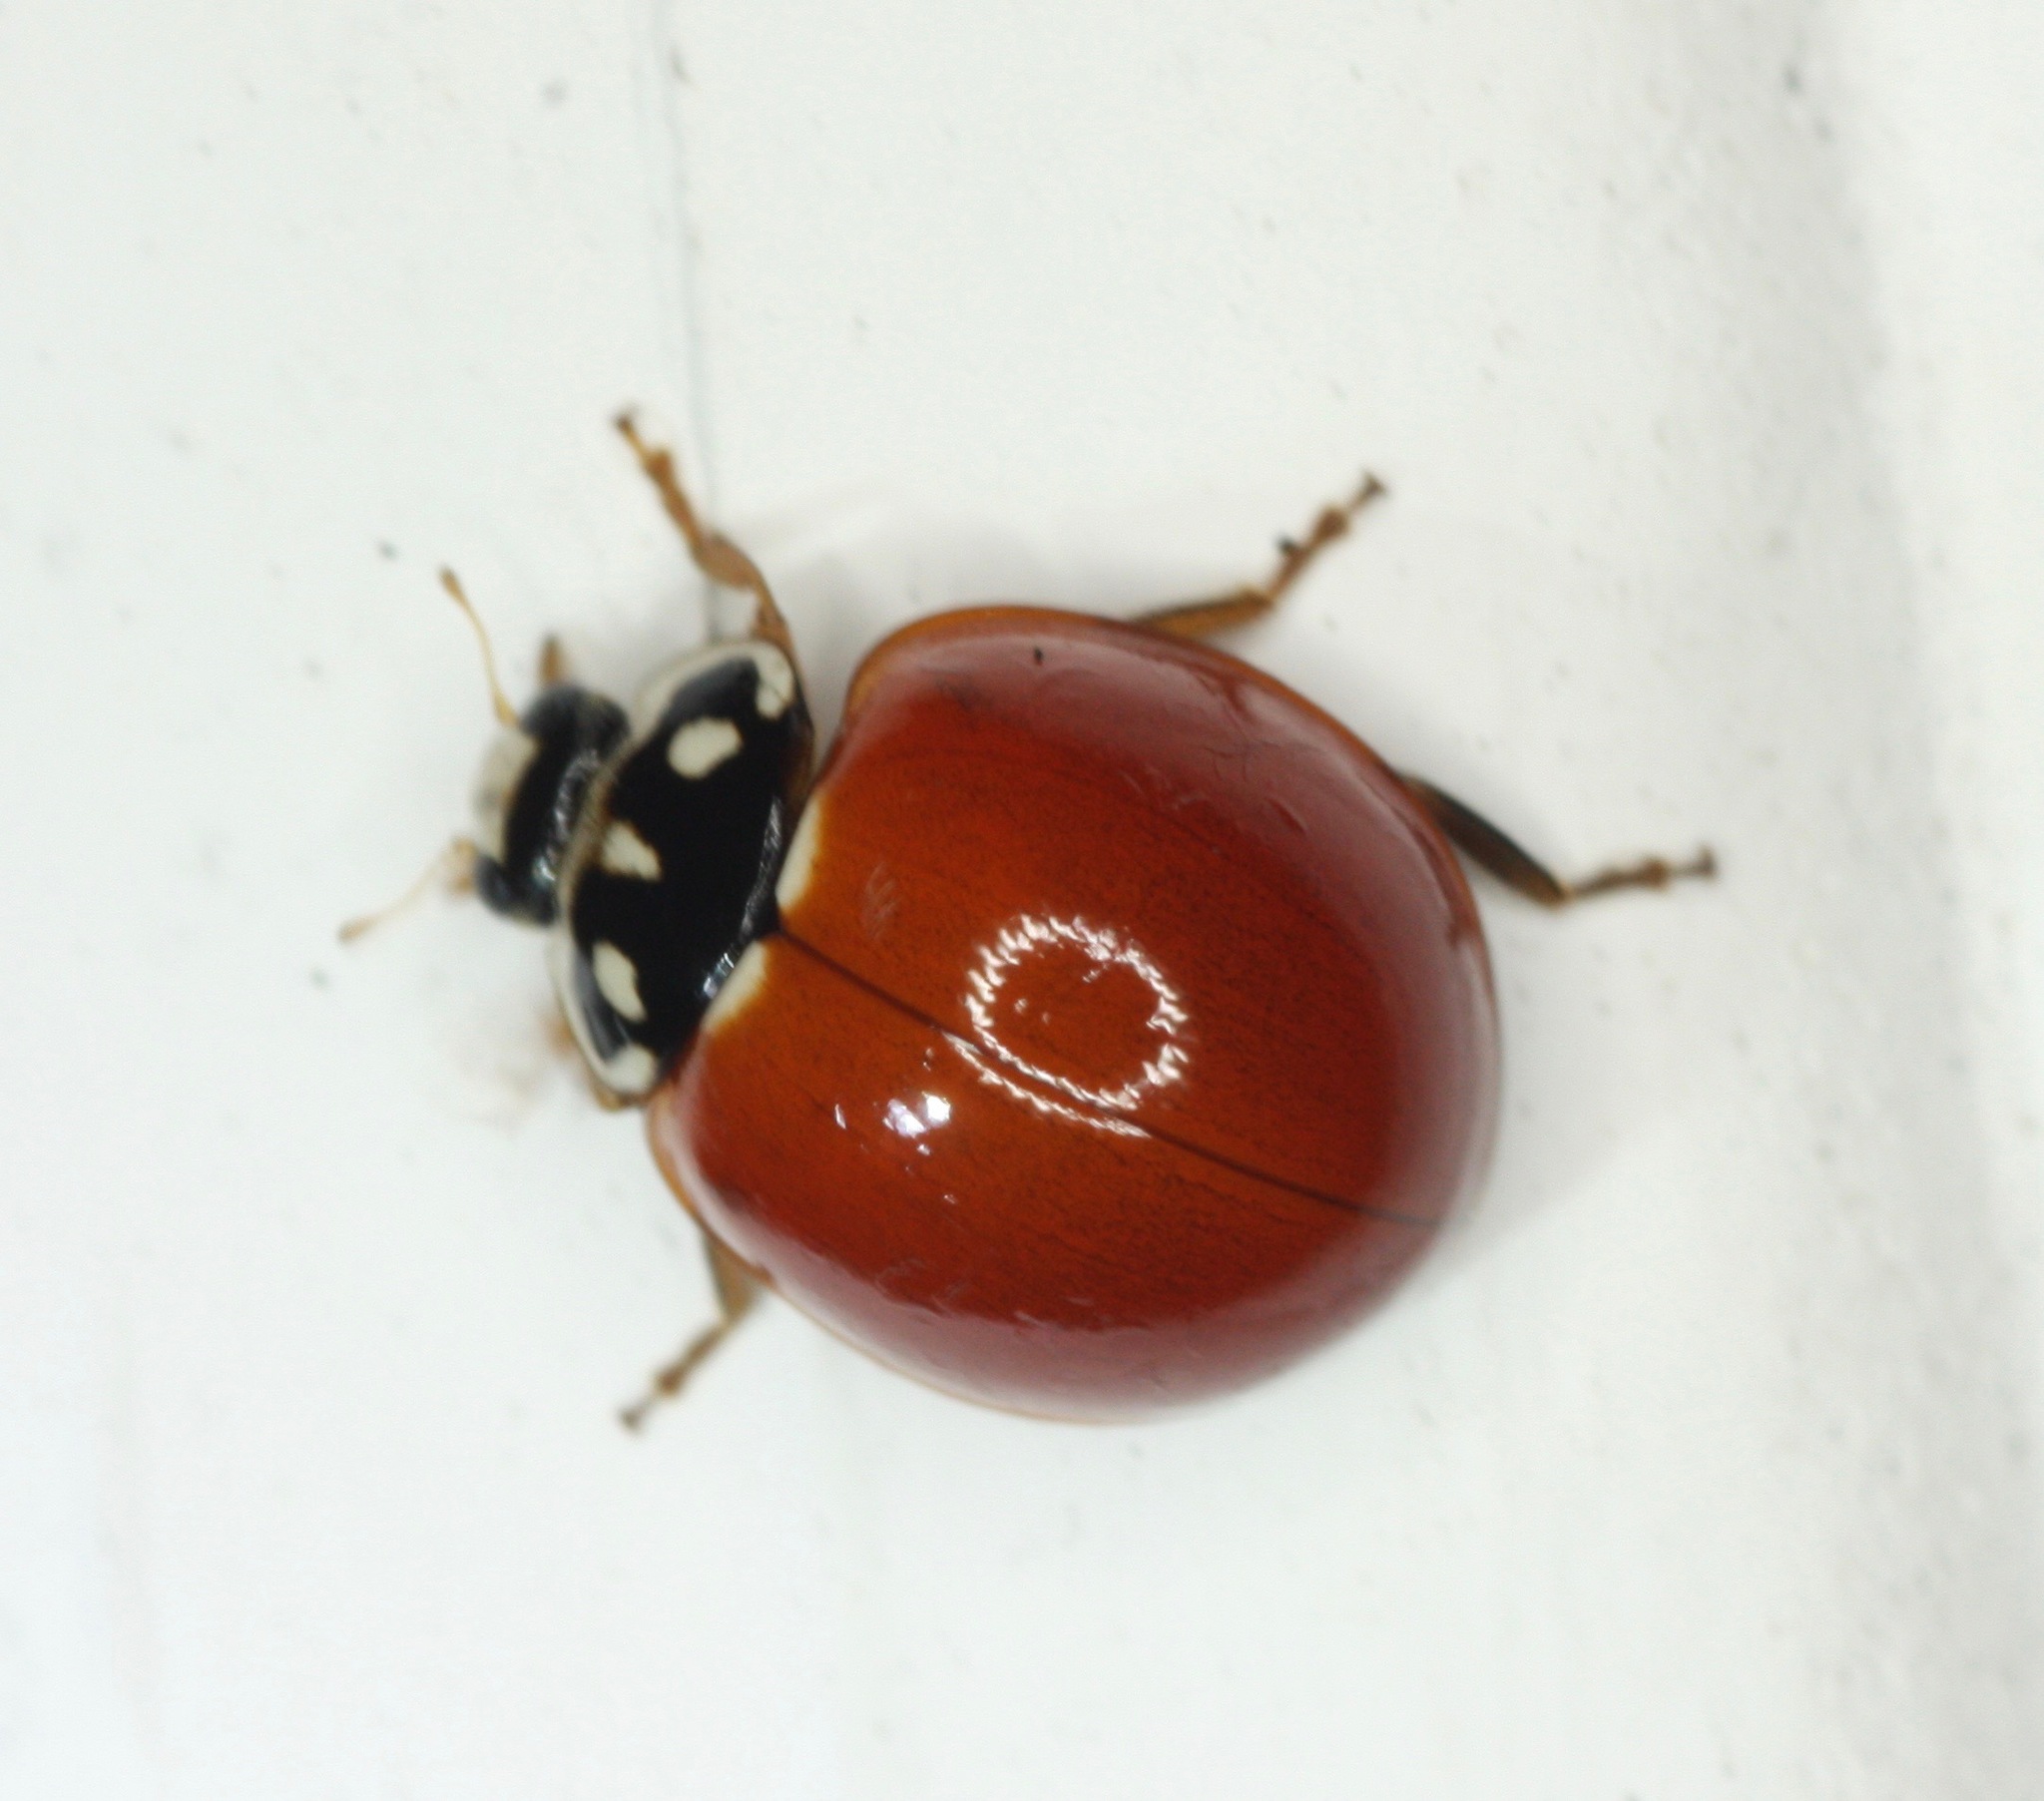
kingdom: Animalia
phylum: Arthropoda
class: Insecta
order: Coleoptera
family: Coccinellidae
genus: Cycloneda
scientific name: Cycloneda sanguinea
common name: Ladybird beetle
